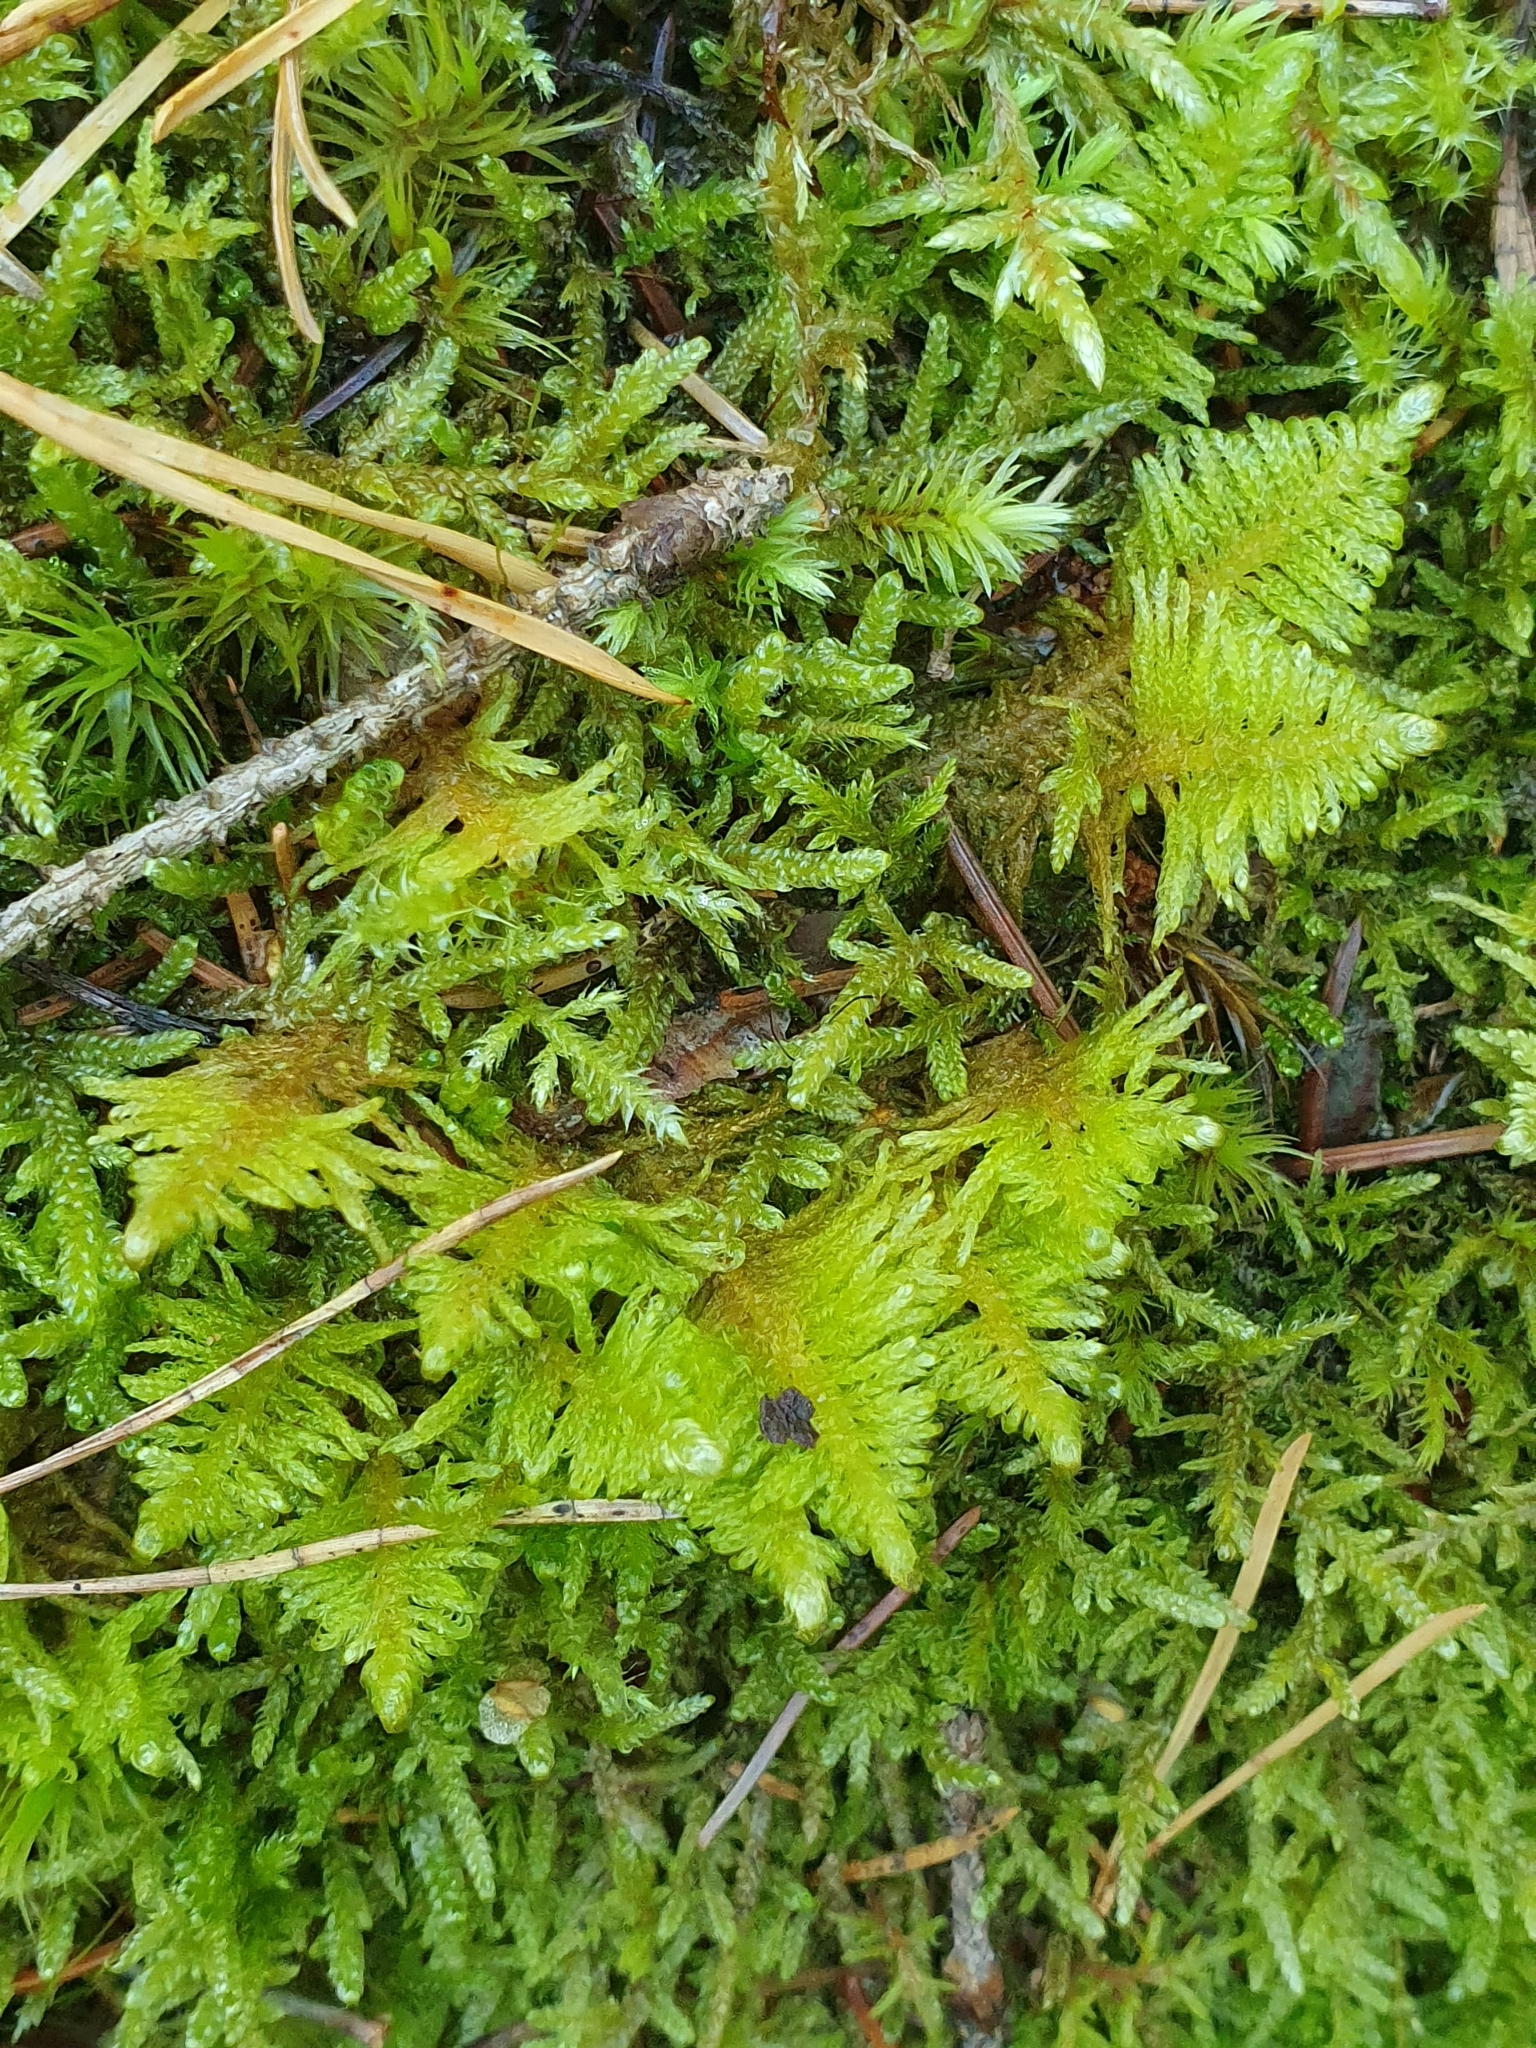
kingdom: Plantae
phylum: Bryophyta
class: Bryopsida
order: Hypnales
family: Pylaisiaceae
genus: Ptilium
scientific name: Ptilium crista-castrensis
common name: Knight's plume moss
